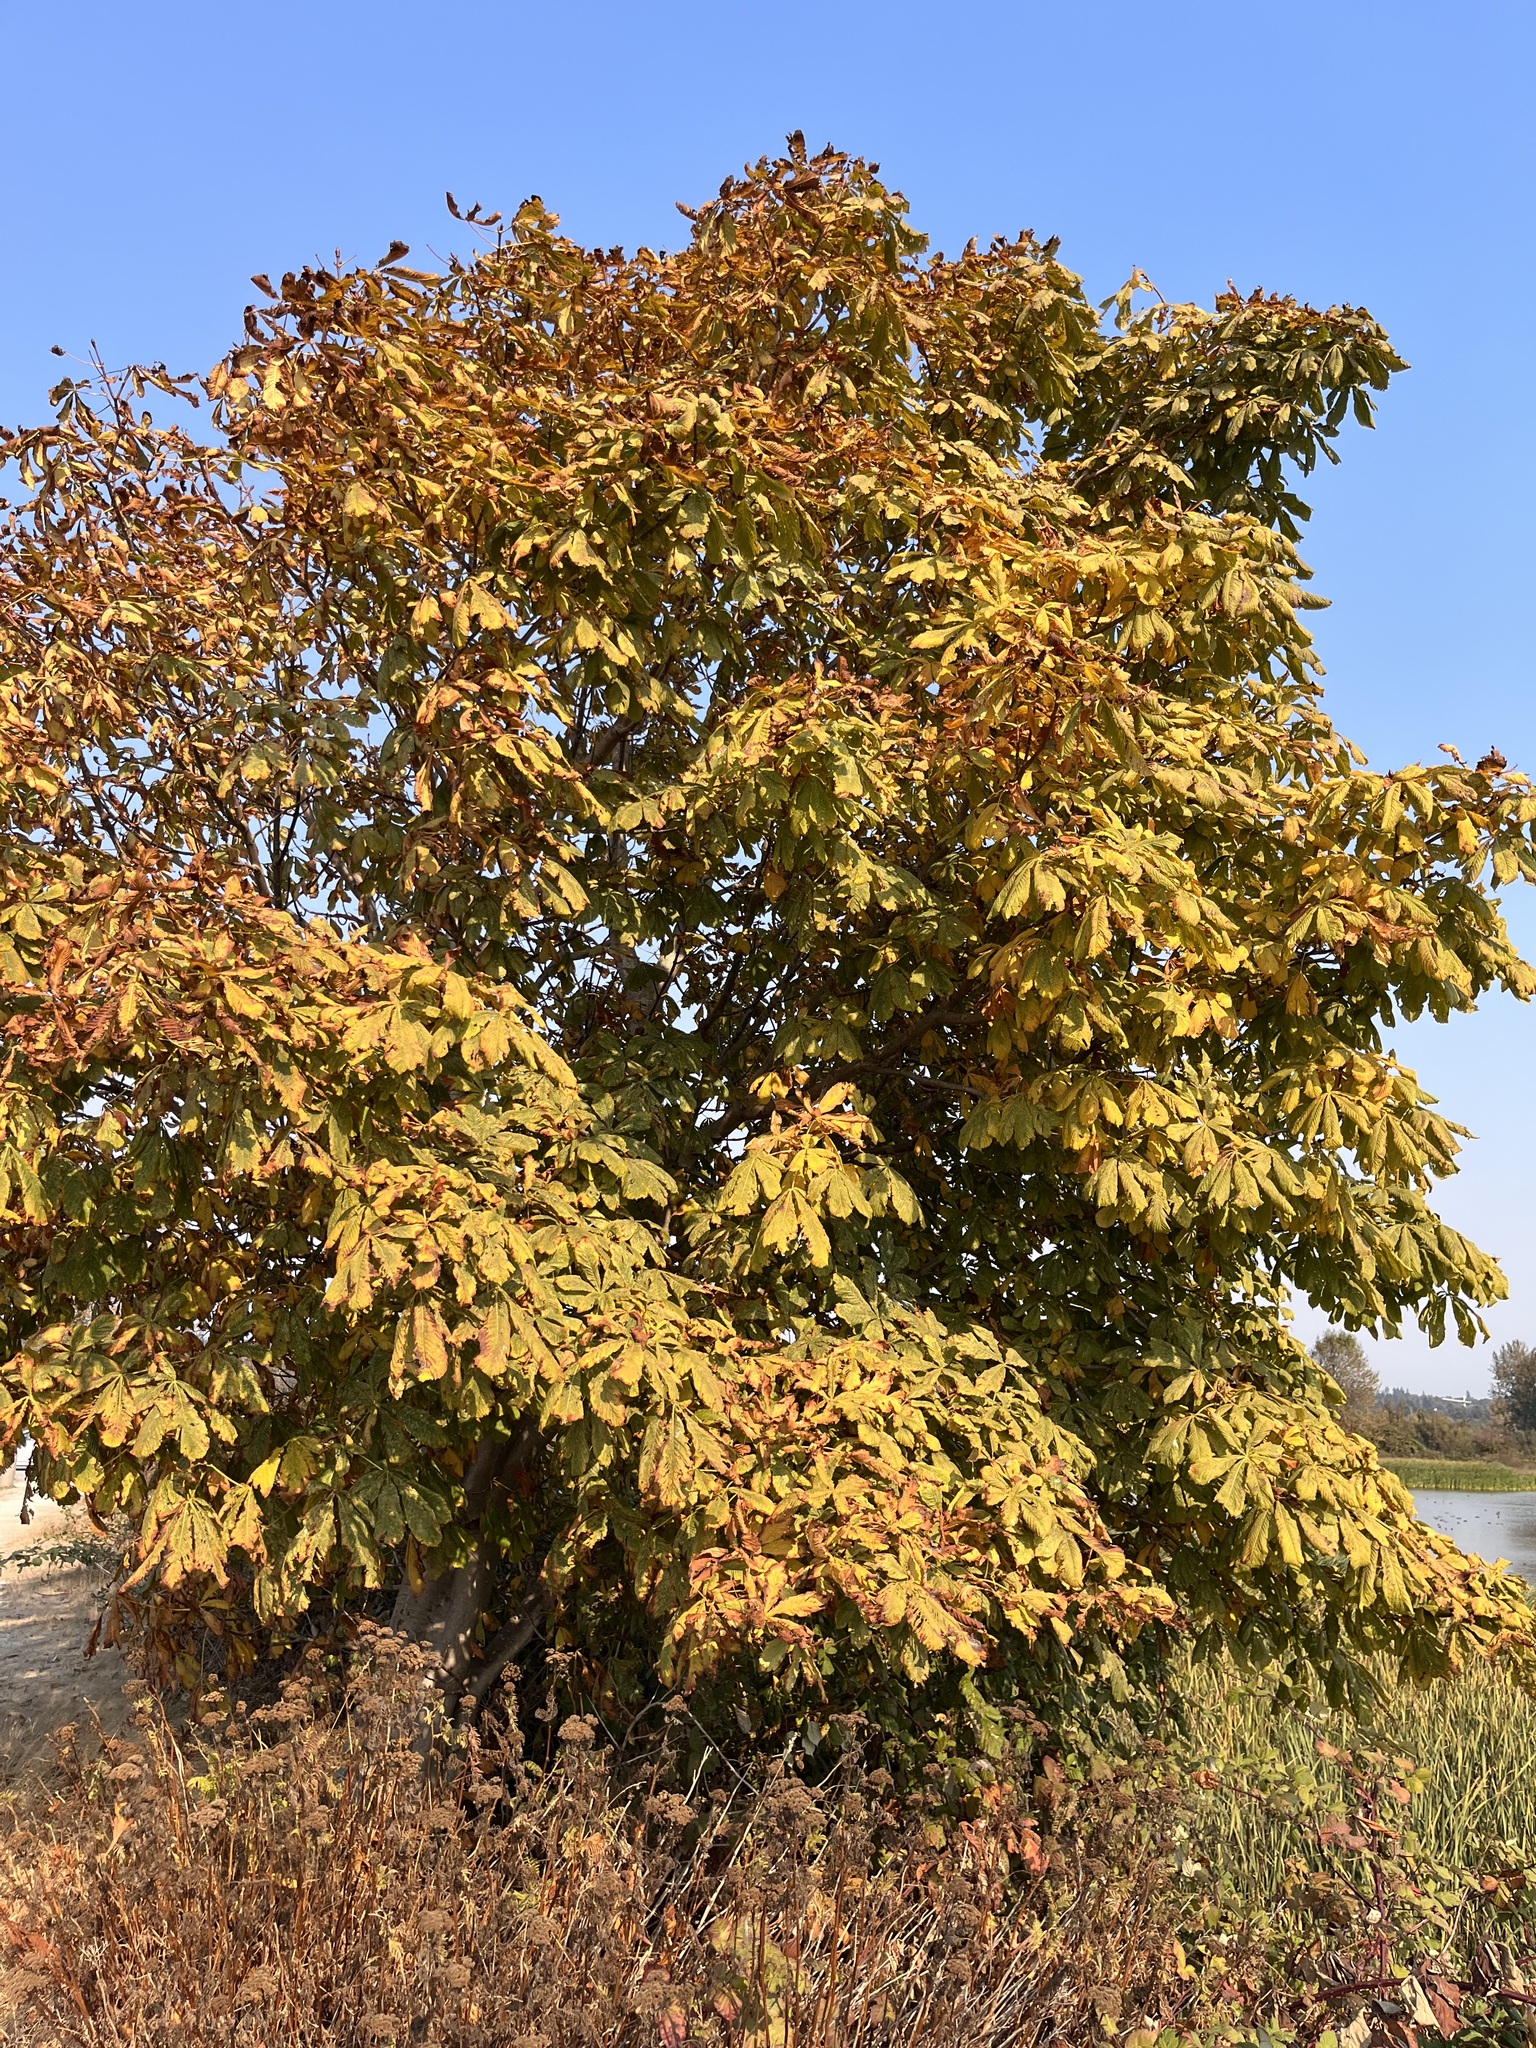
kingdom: Plantae
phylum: Tracheophyta
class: Magnoliopsida
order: Sapindales
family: Sapindaceae
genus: Aesculus
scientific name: Aesculus hippocastanum
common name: Horse-chestnut
